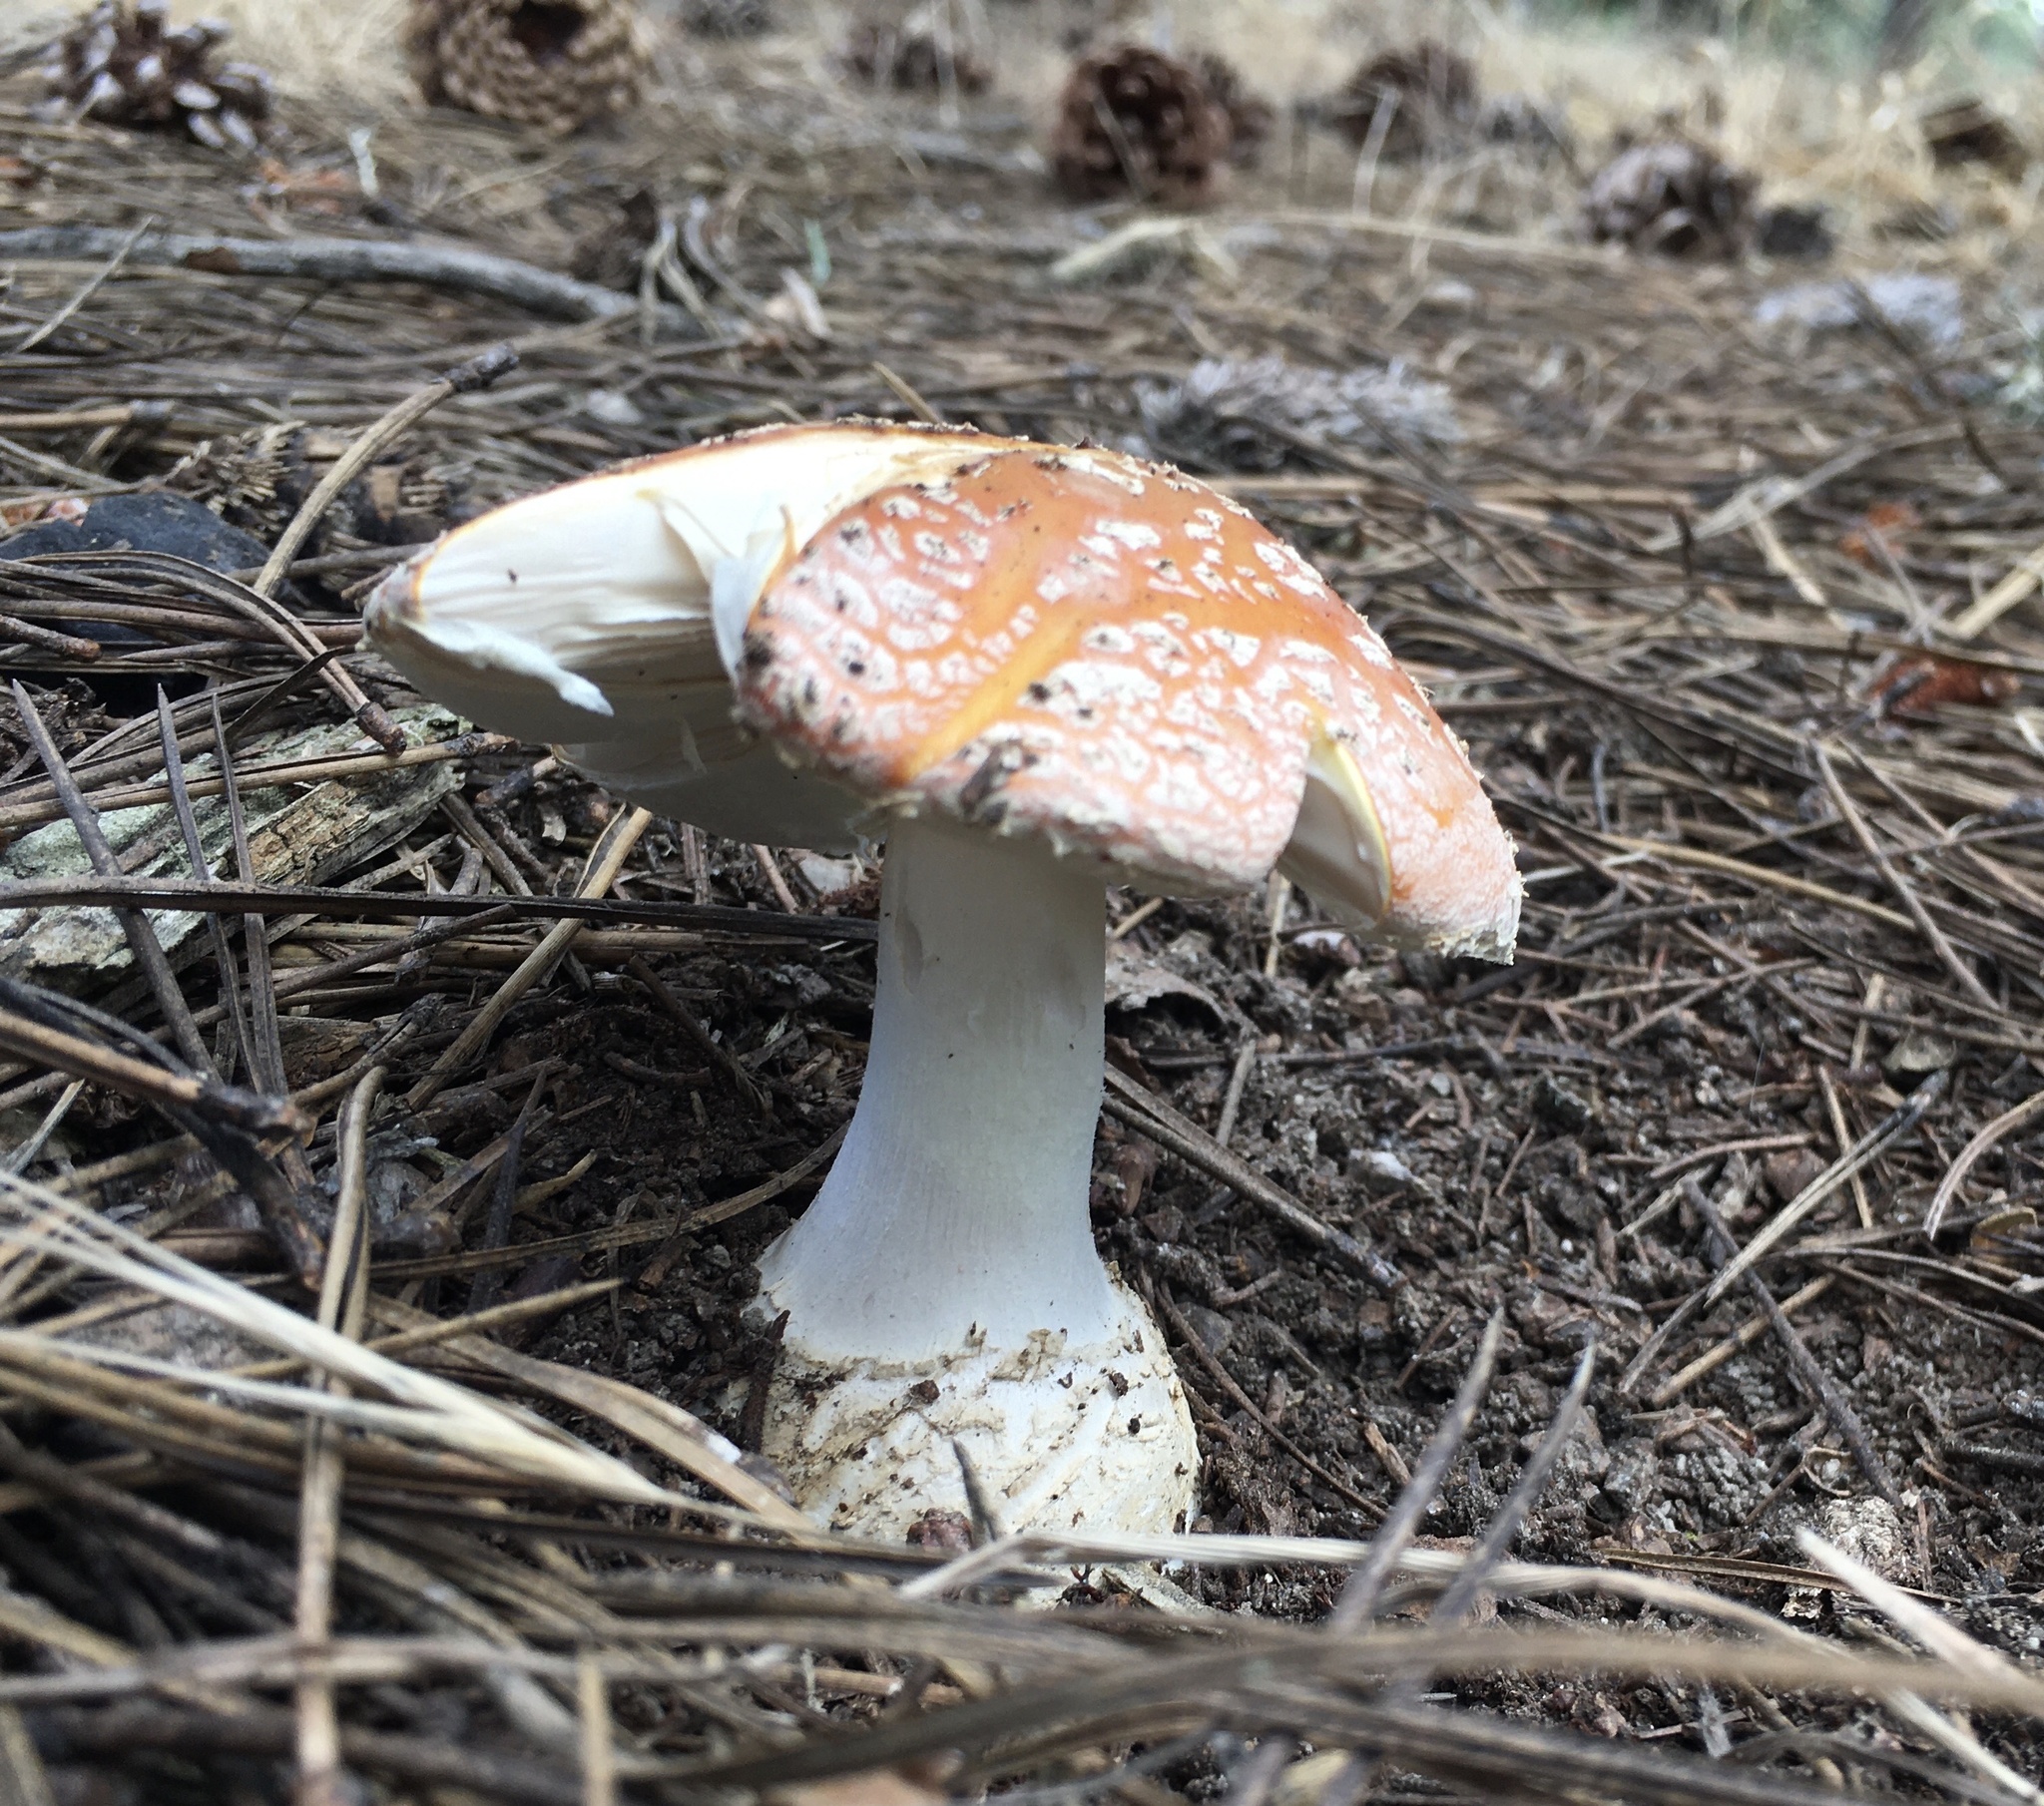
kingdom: Fungi
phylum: Basidiomycota
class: Agaricomycetes
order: Agaricales
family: Amanitaceae
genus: Amanita
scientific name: Amanita muscaria
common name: Fly agaric
